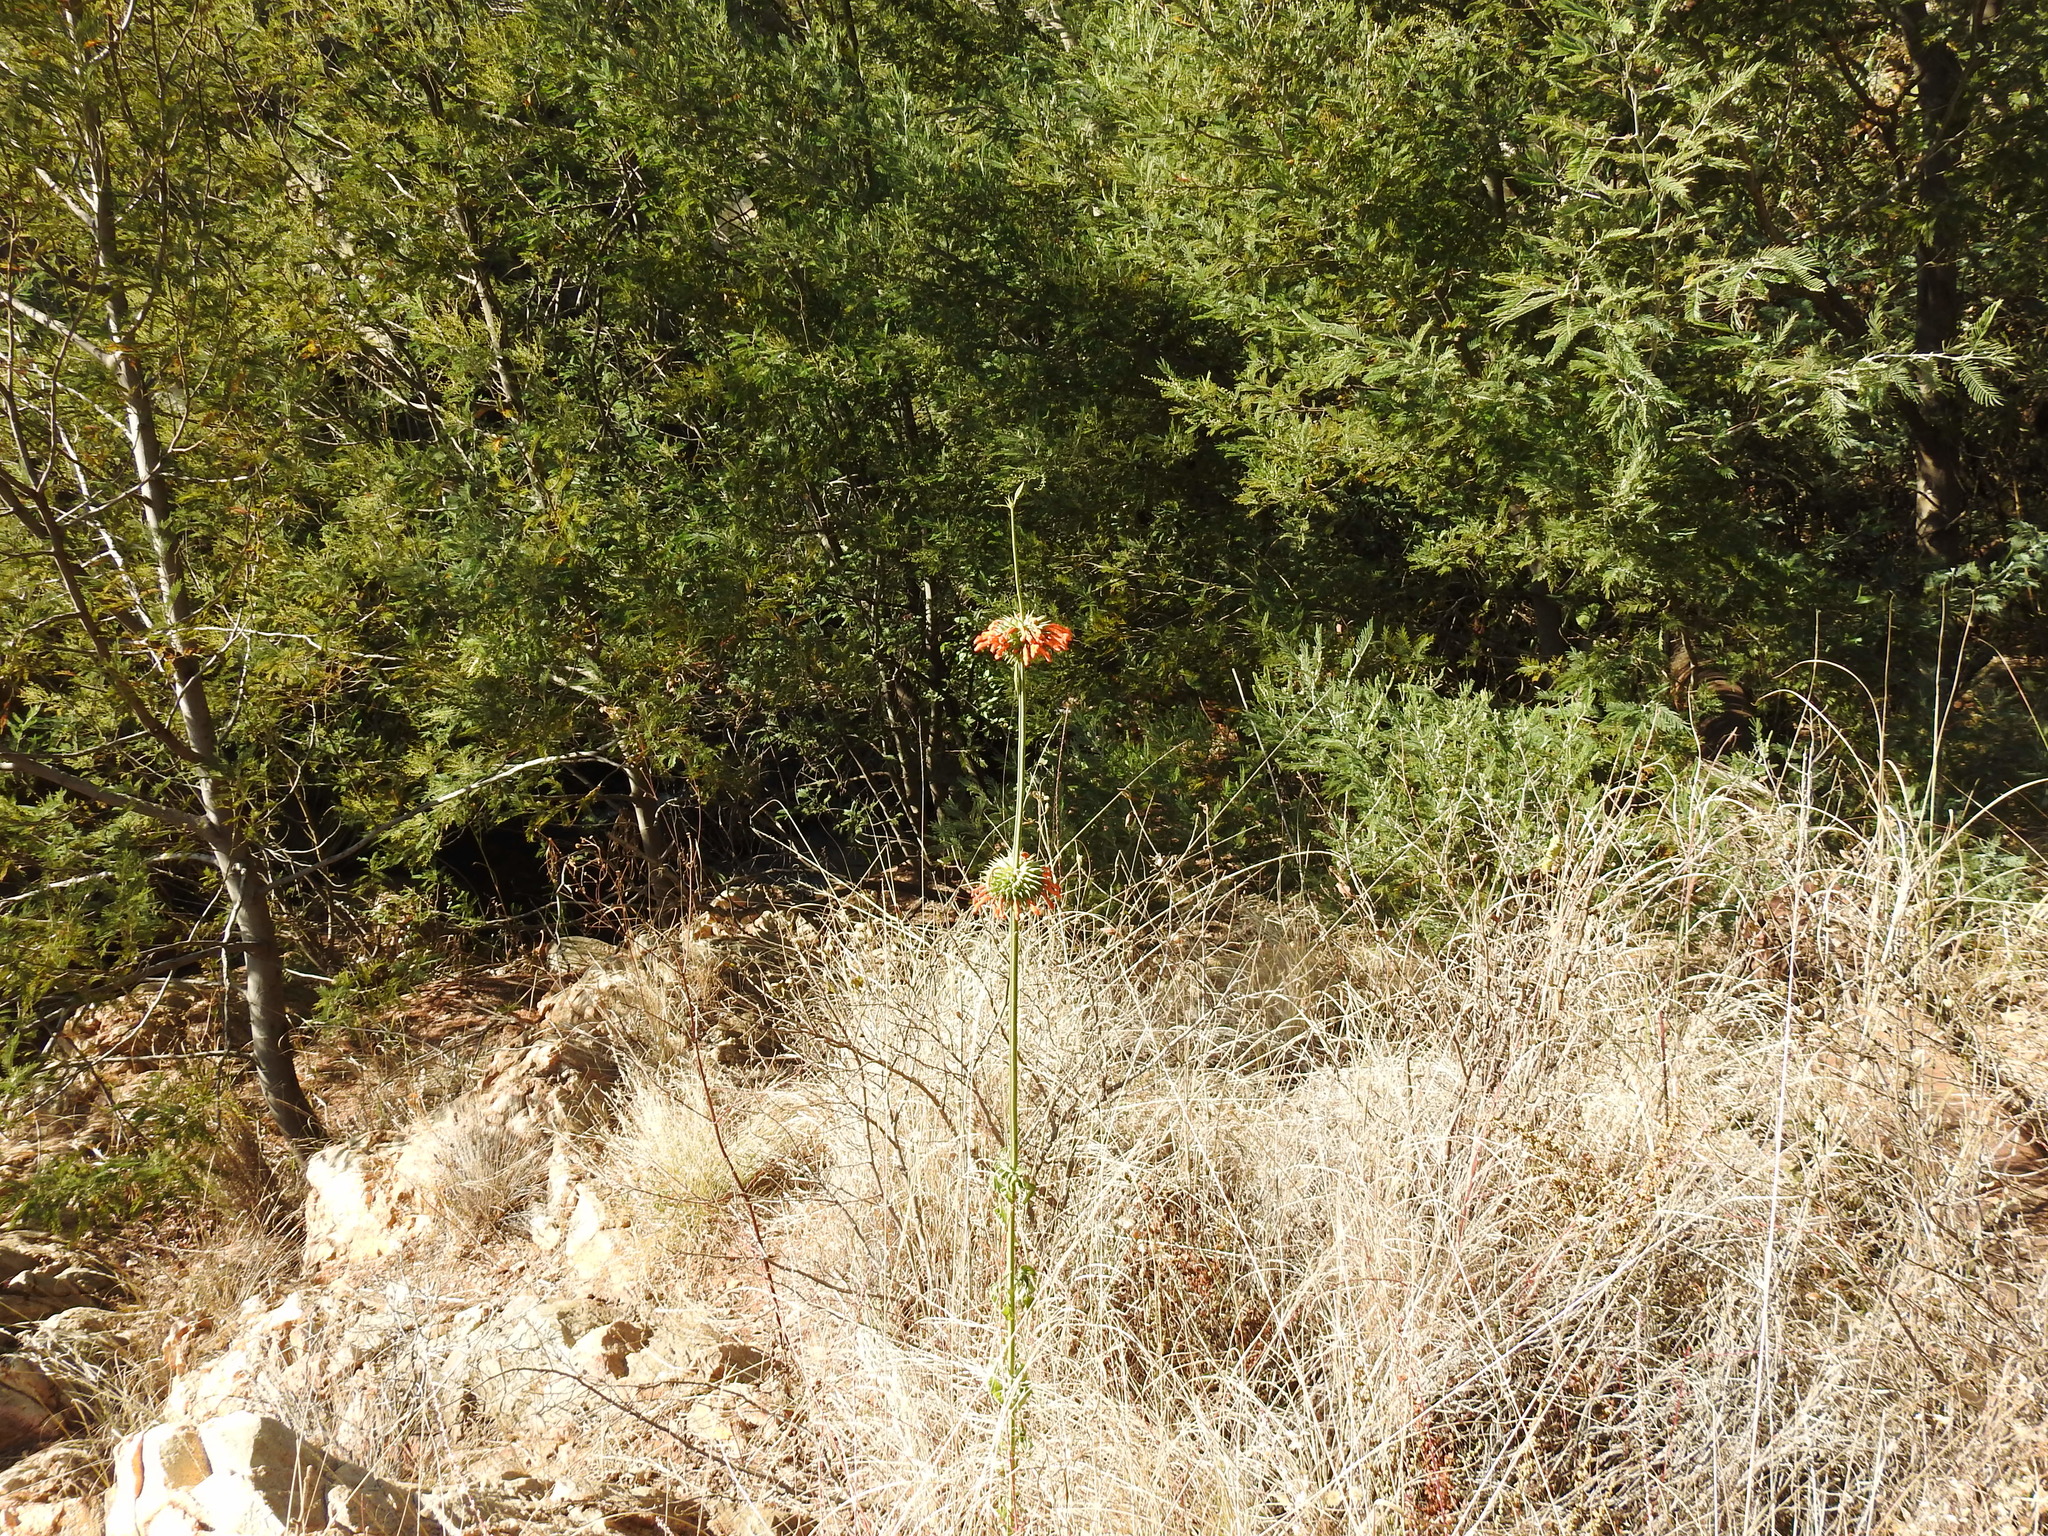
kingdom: Plantae
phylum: Tracheophyta
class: Magnoliopsida
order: Lamiales
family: Lamiaceae
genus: Leonotis
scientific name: Leonotis nepetifolia
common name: Christmas candlestick
